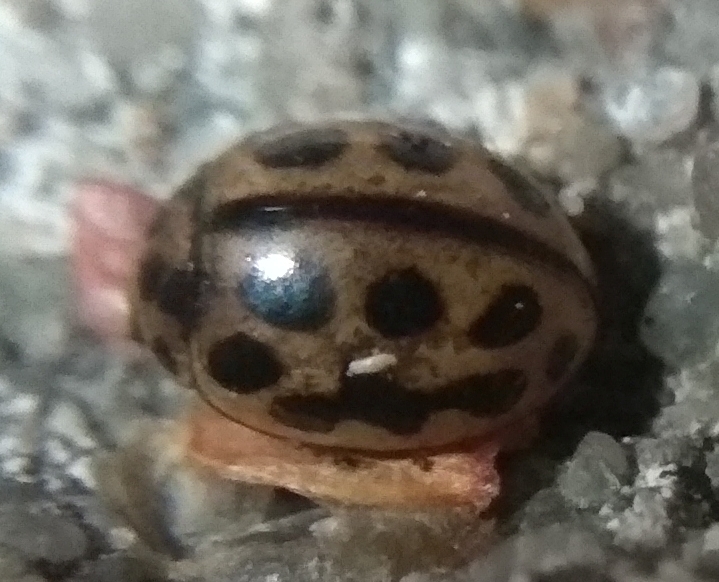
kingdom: Animalia
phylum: Arthropoda
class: Insecta
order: Coleoptera
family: Coccinellidae
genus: Tytthaspis
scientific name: Tytthaspis sedecimpunctata
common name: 16-spot ladybird
